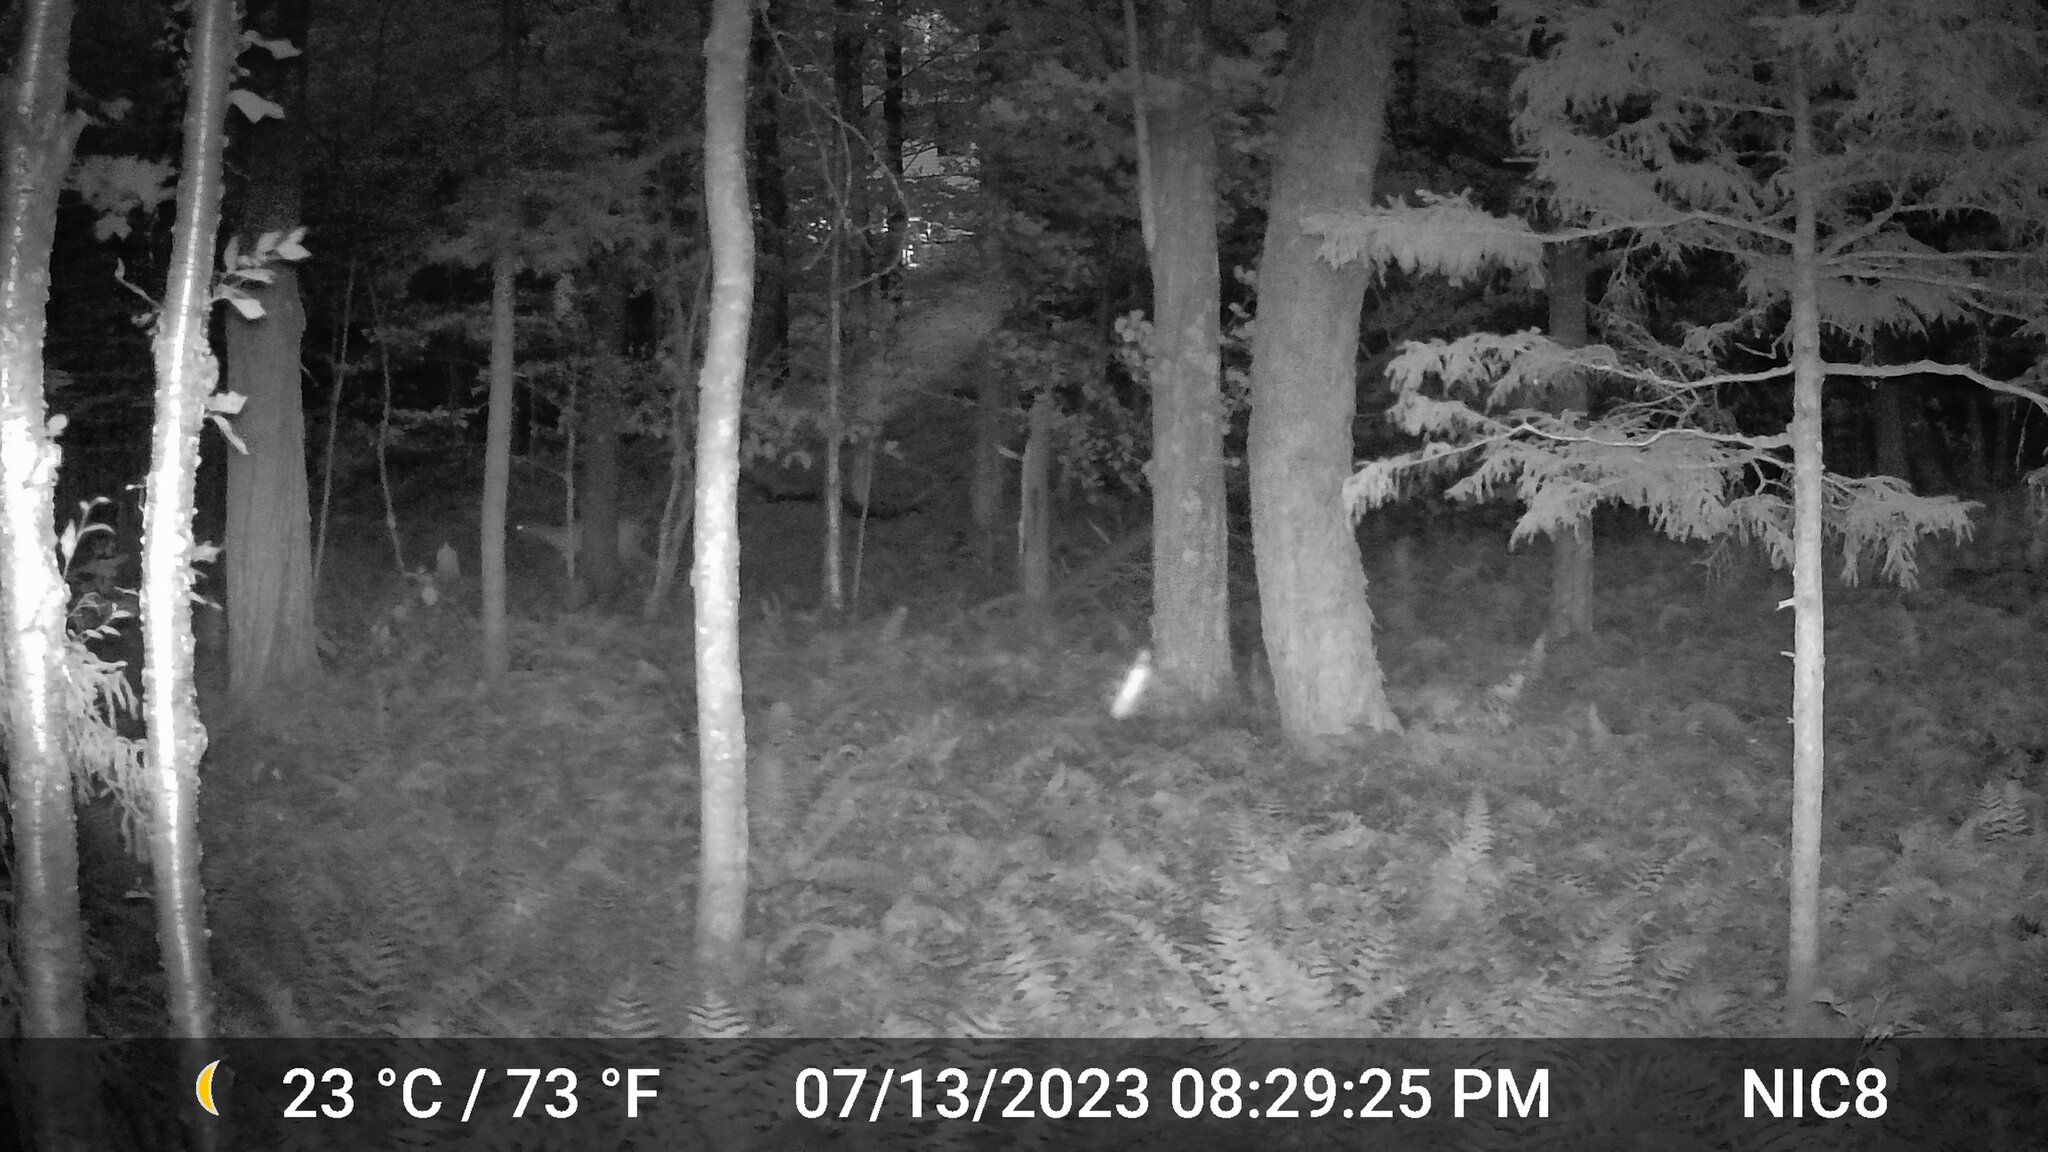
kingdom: Animalia
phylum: Chordata
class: Mammalia
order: Artiodactyla
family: Cervidae
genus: Odocoileus
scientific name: Odocoileus virginianus
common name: White-tailed deer
